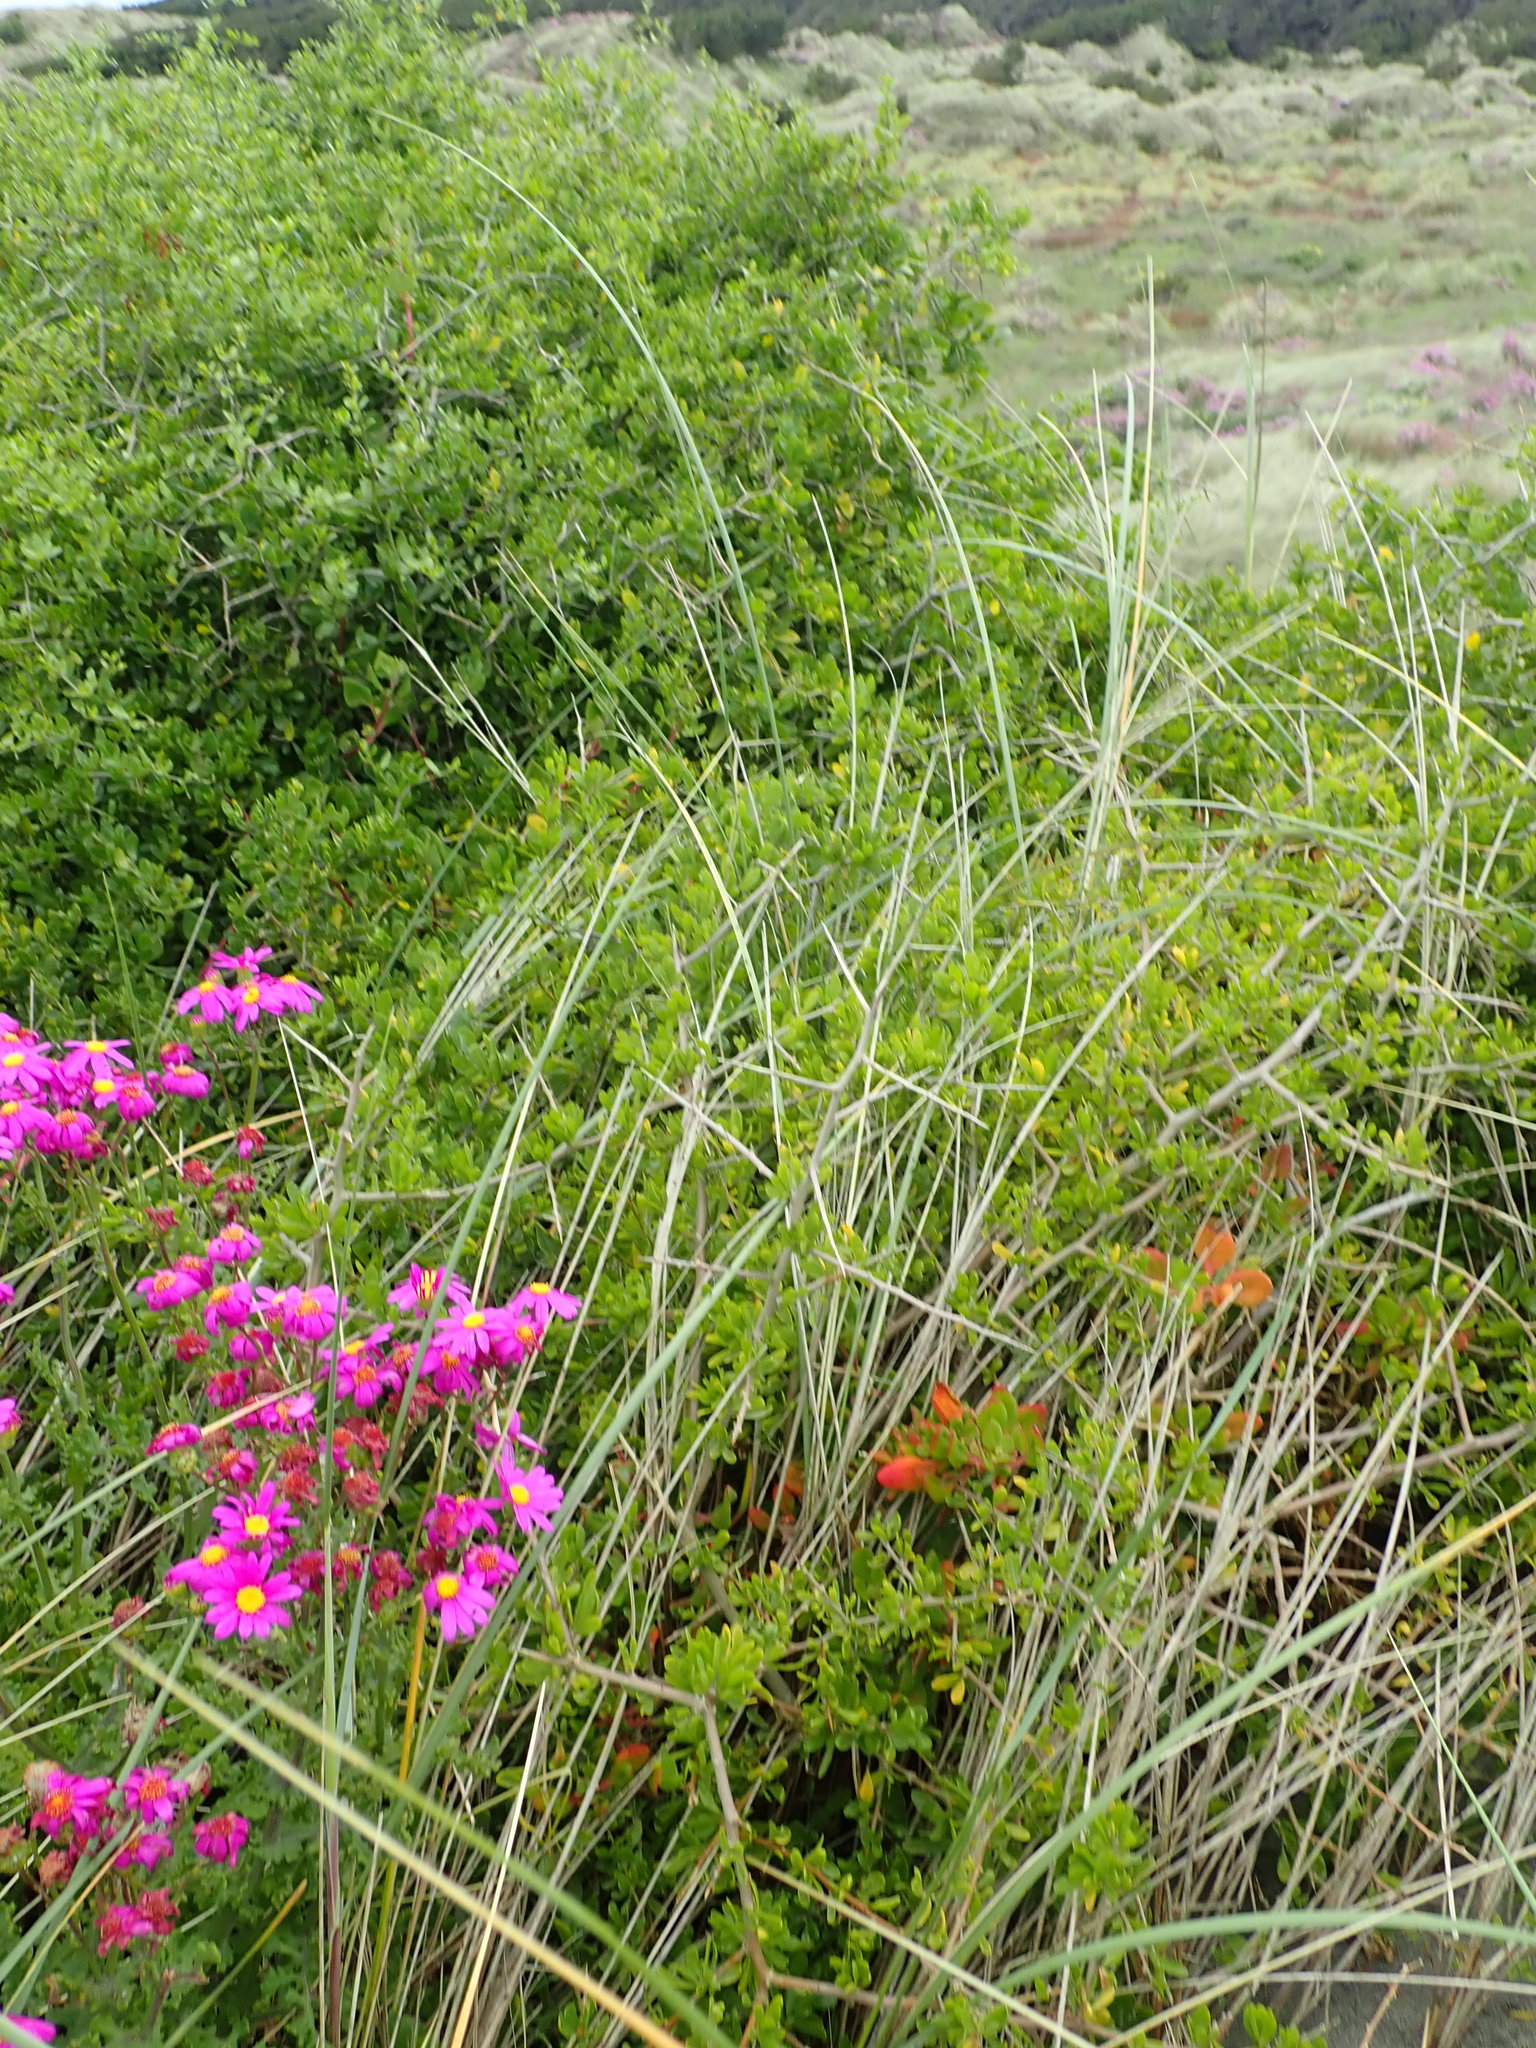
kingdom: Plantae
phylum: Tracheophyta
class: Magnoliopsida
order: Caryophyllales
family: Aizoaceae
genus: Tetragonia
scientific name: Tetragonia implexicoma
